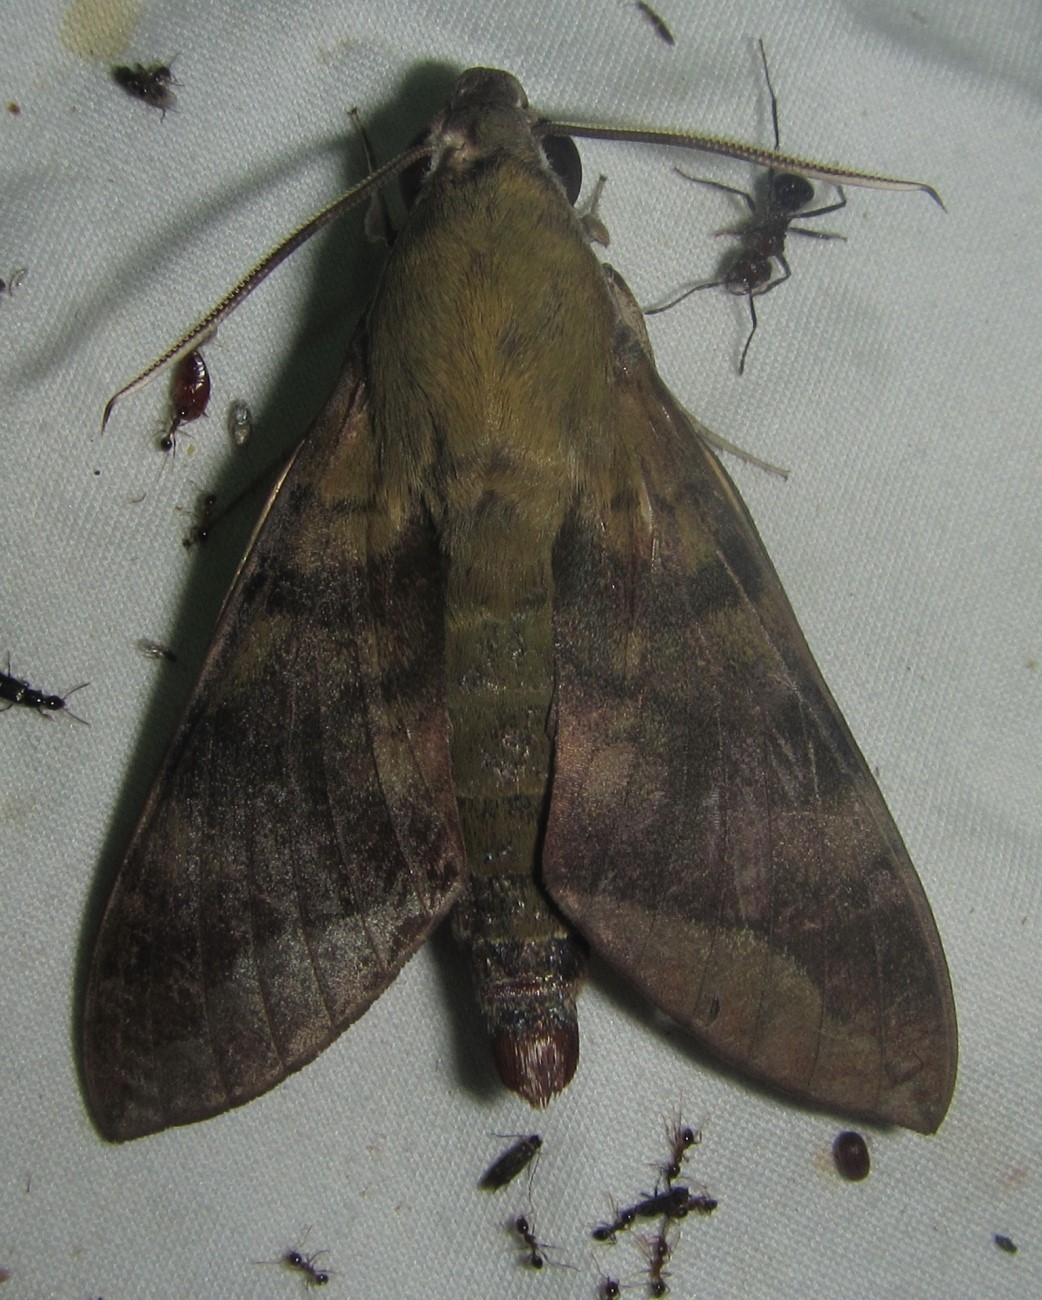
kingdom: Animalia
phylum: Arthropoda
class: Insecta
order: Lepidoptera
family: Sphingidae
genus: Nephele
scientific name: Nephele comma
